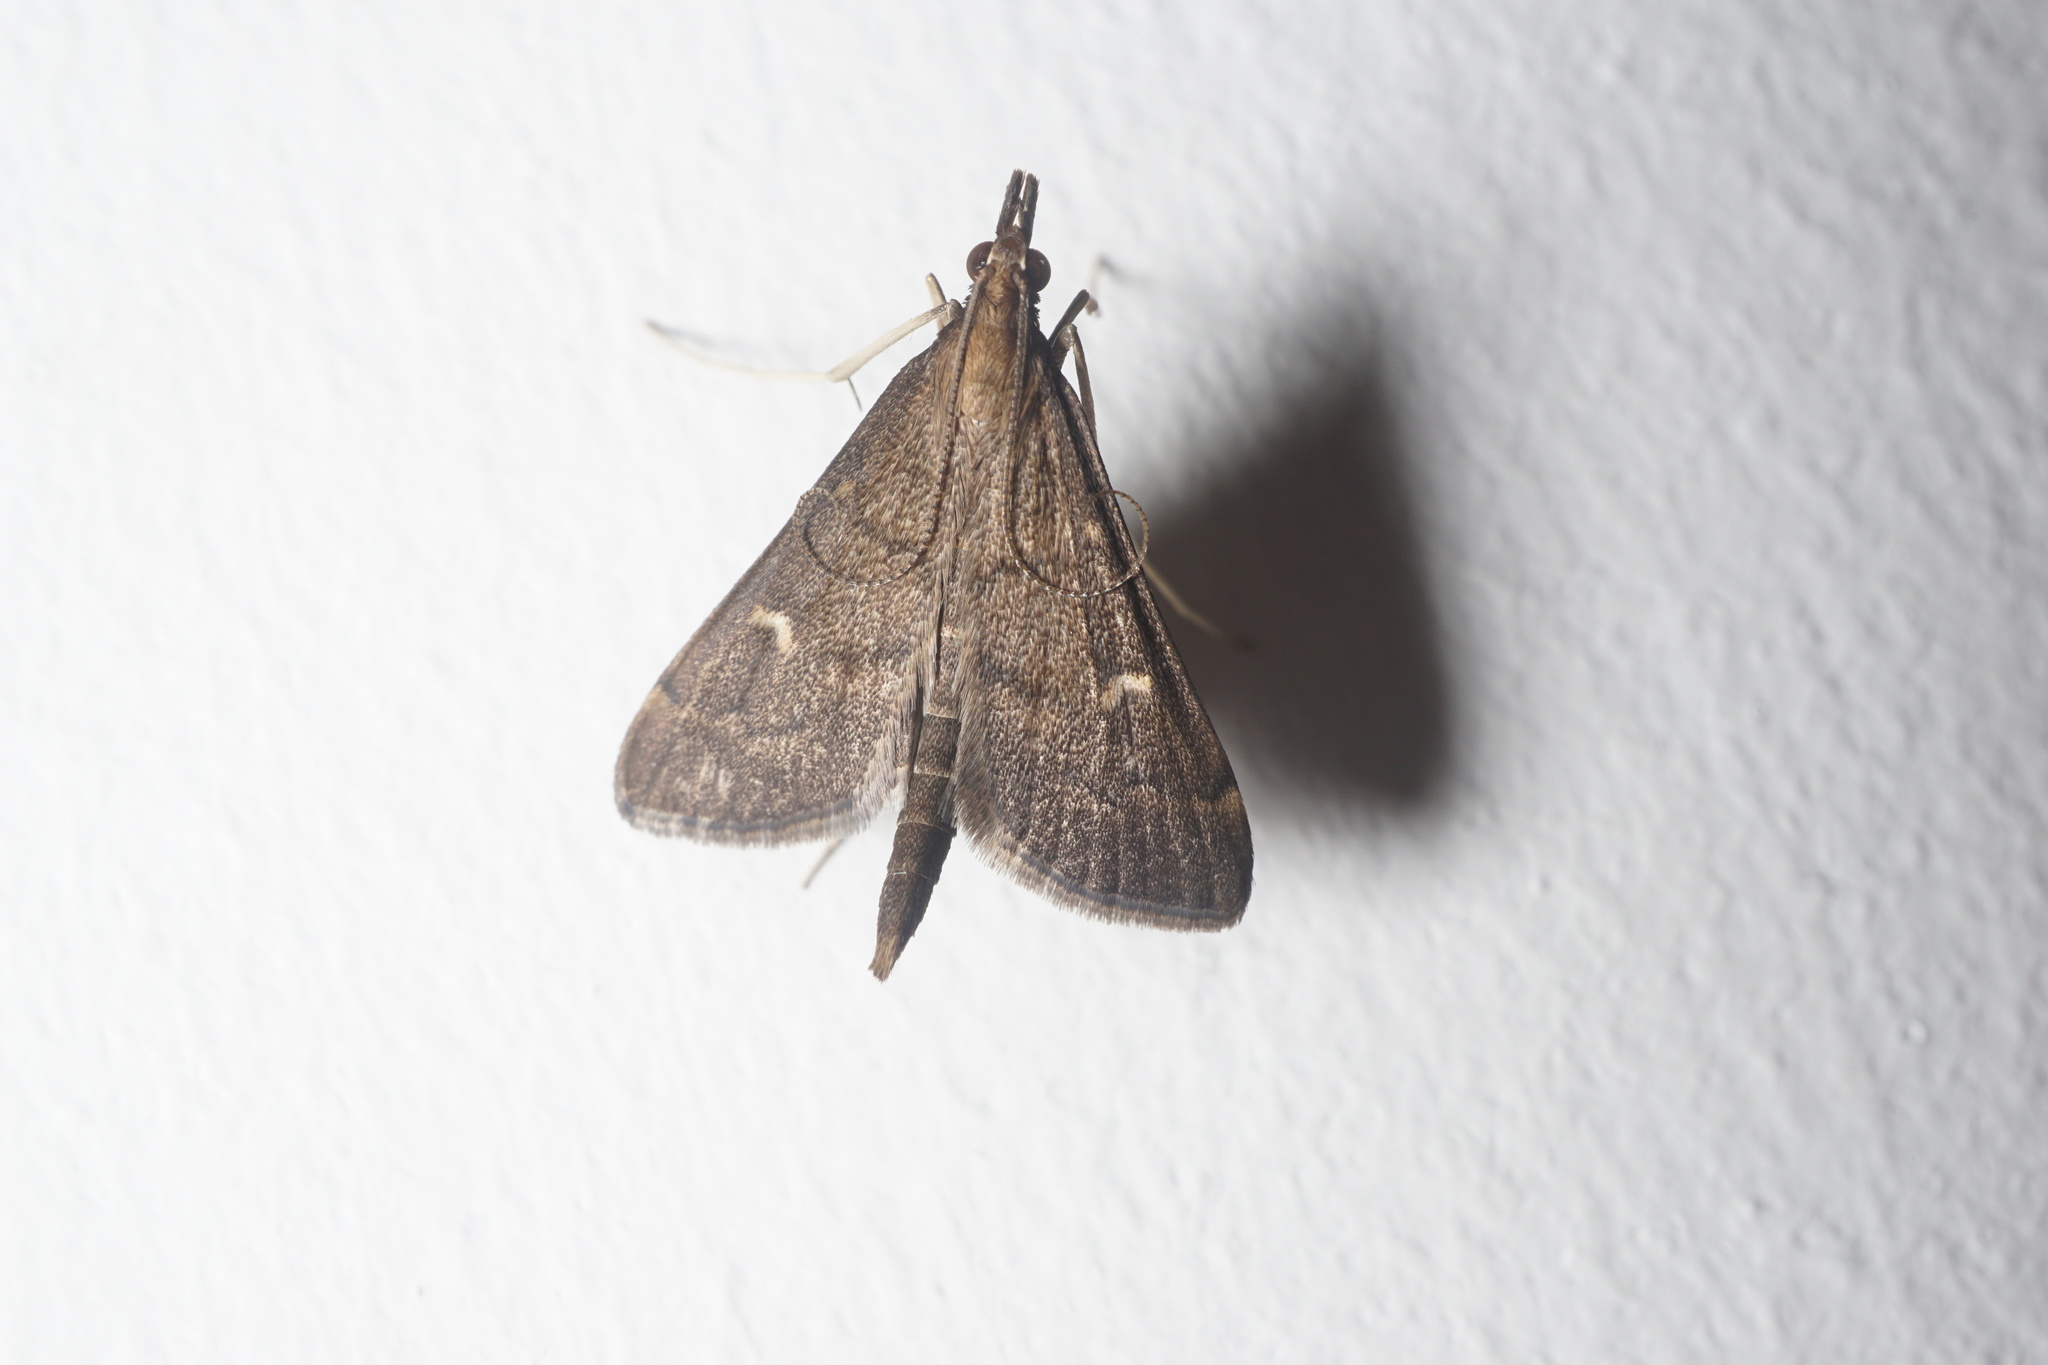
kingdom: Animalia
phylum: Arthropoda
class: Insecta
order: Lepidoptera
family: Crambidae
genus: Stenia
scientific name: Stenia Dolicharthria punctalis
